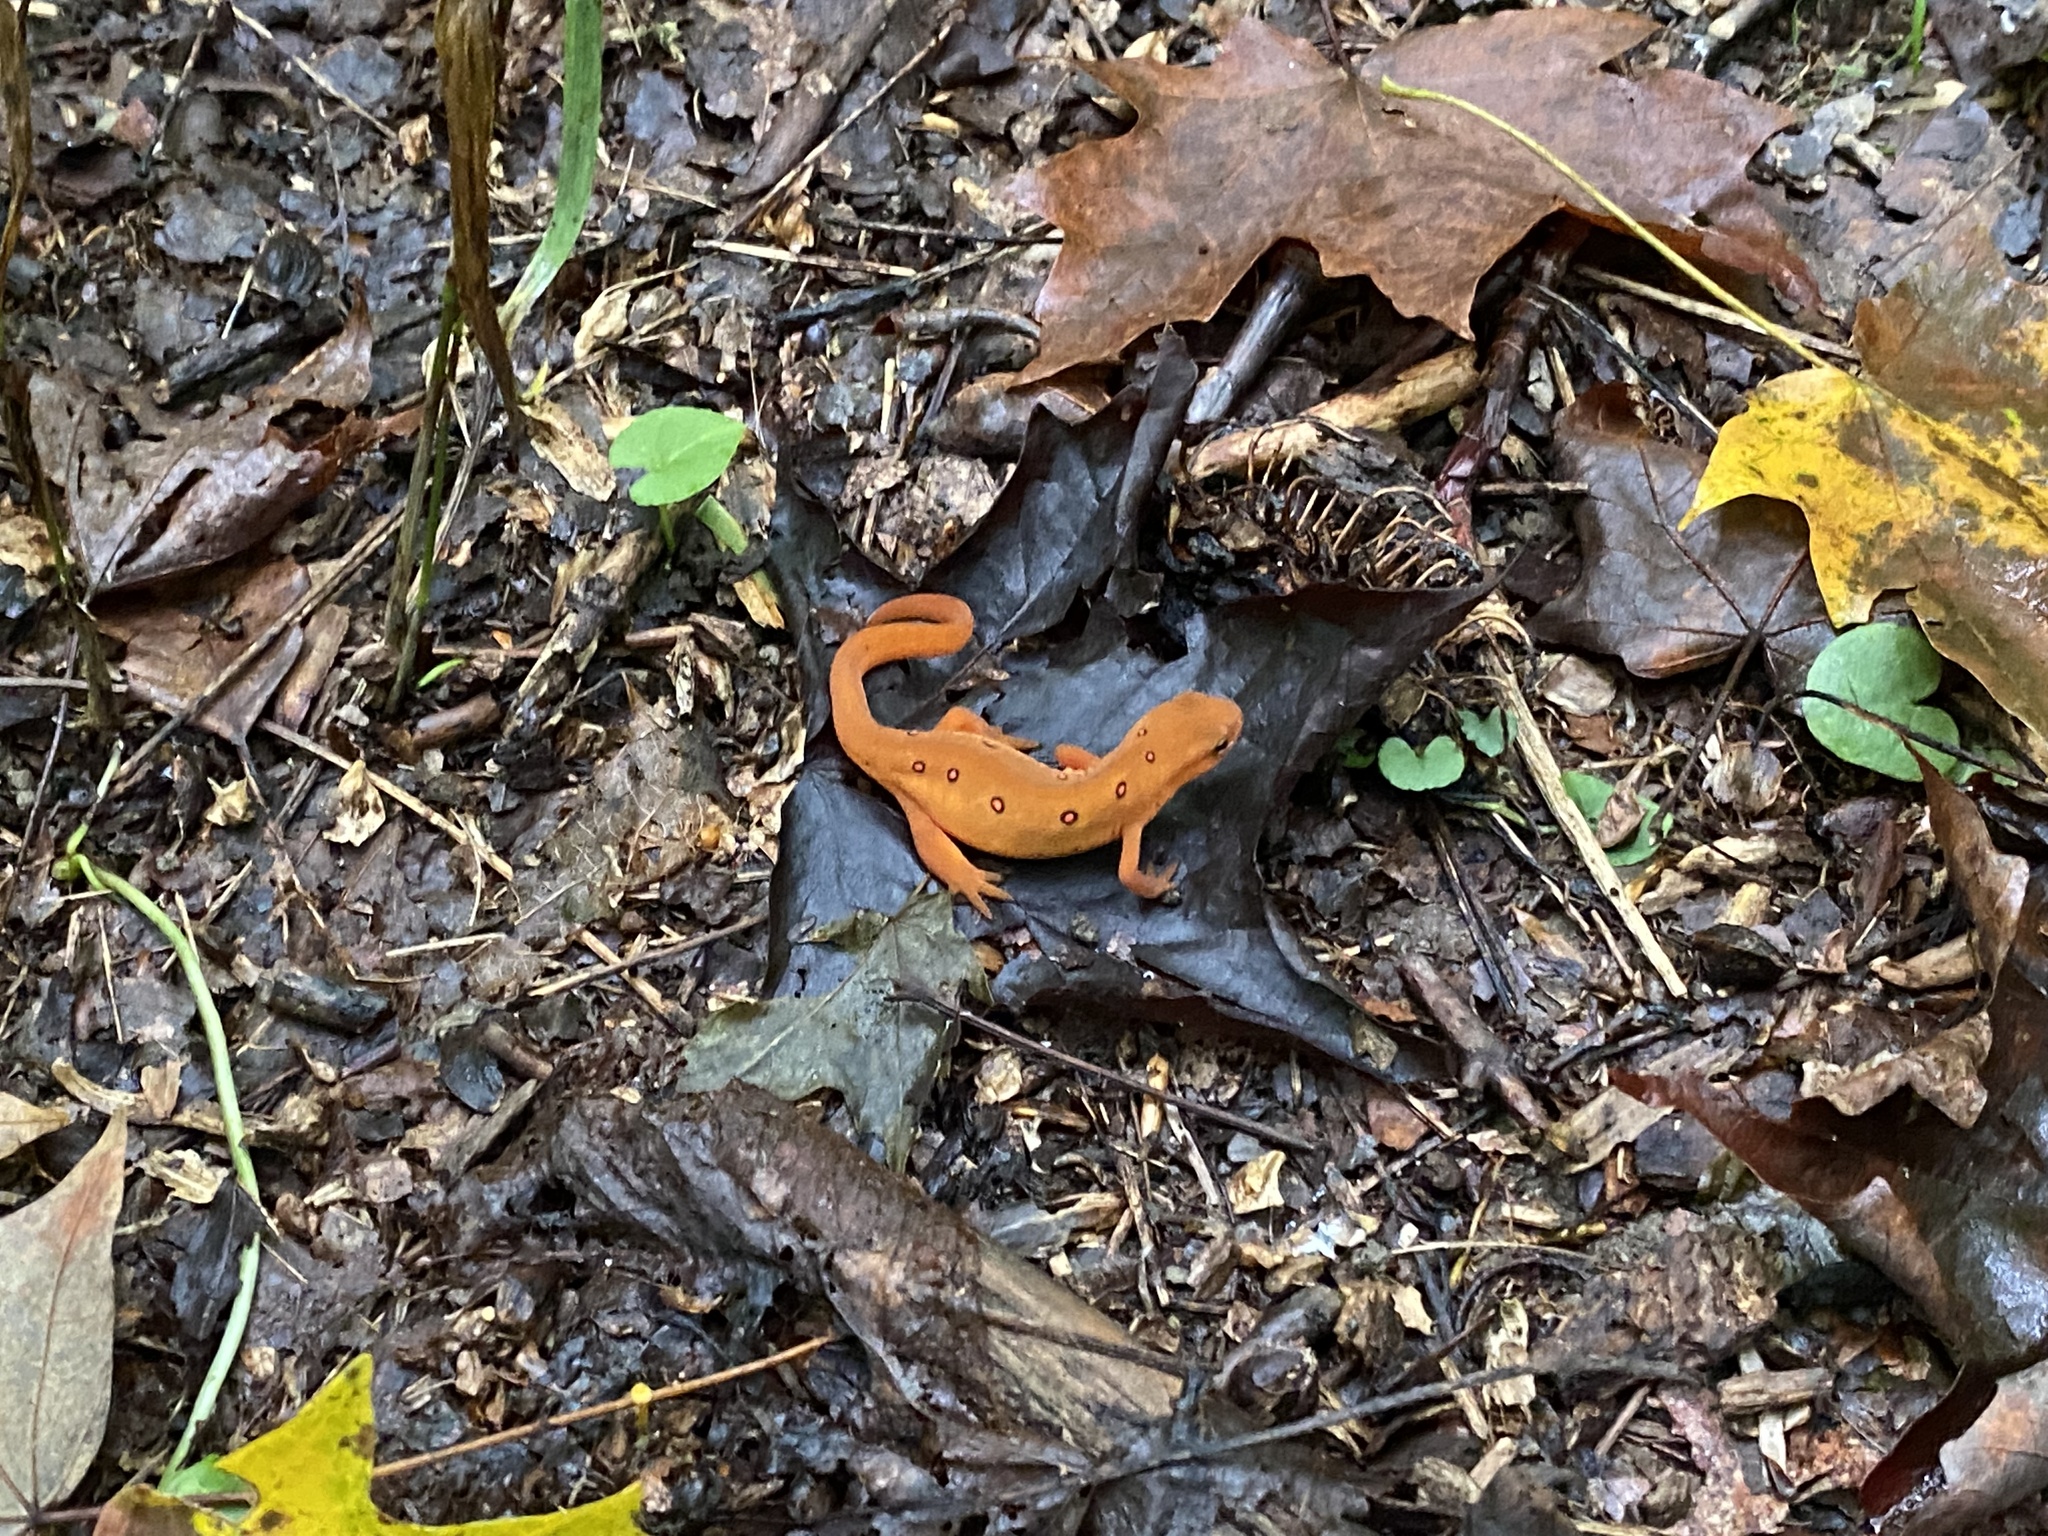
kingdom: Animalia
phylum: Chordata
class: Amphibia
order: Caudata
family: Salamandridae
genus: Notophthalmus
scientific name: Notophthalmus viridescens
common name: Eastern newt
